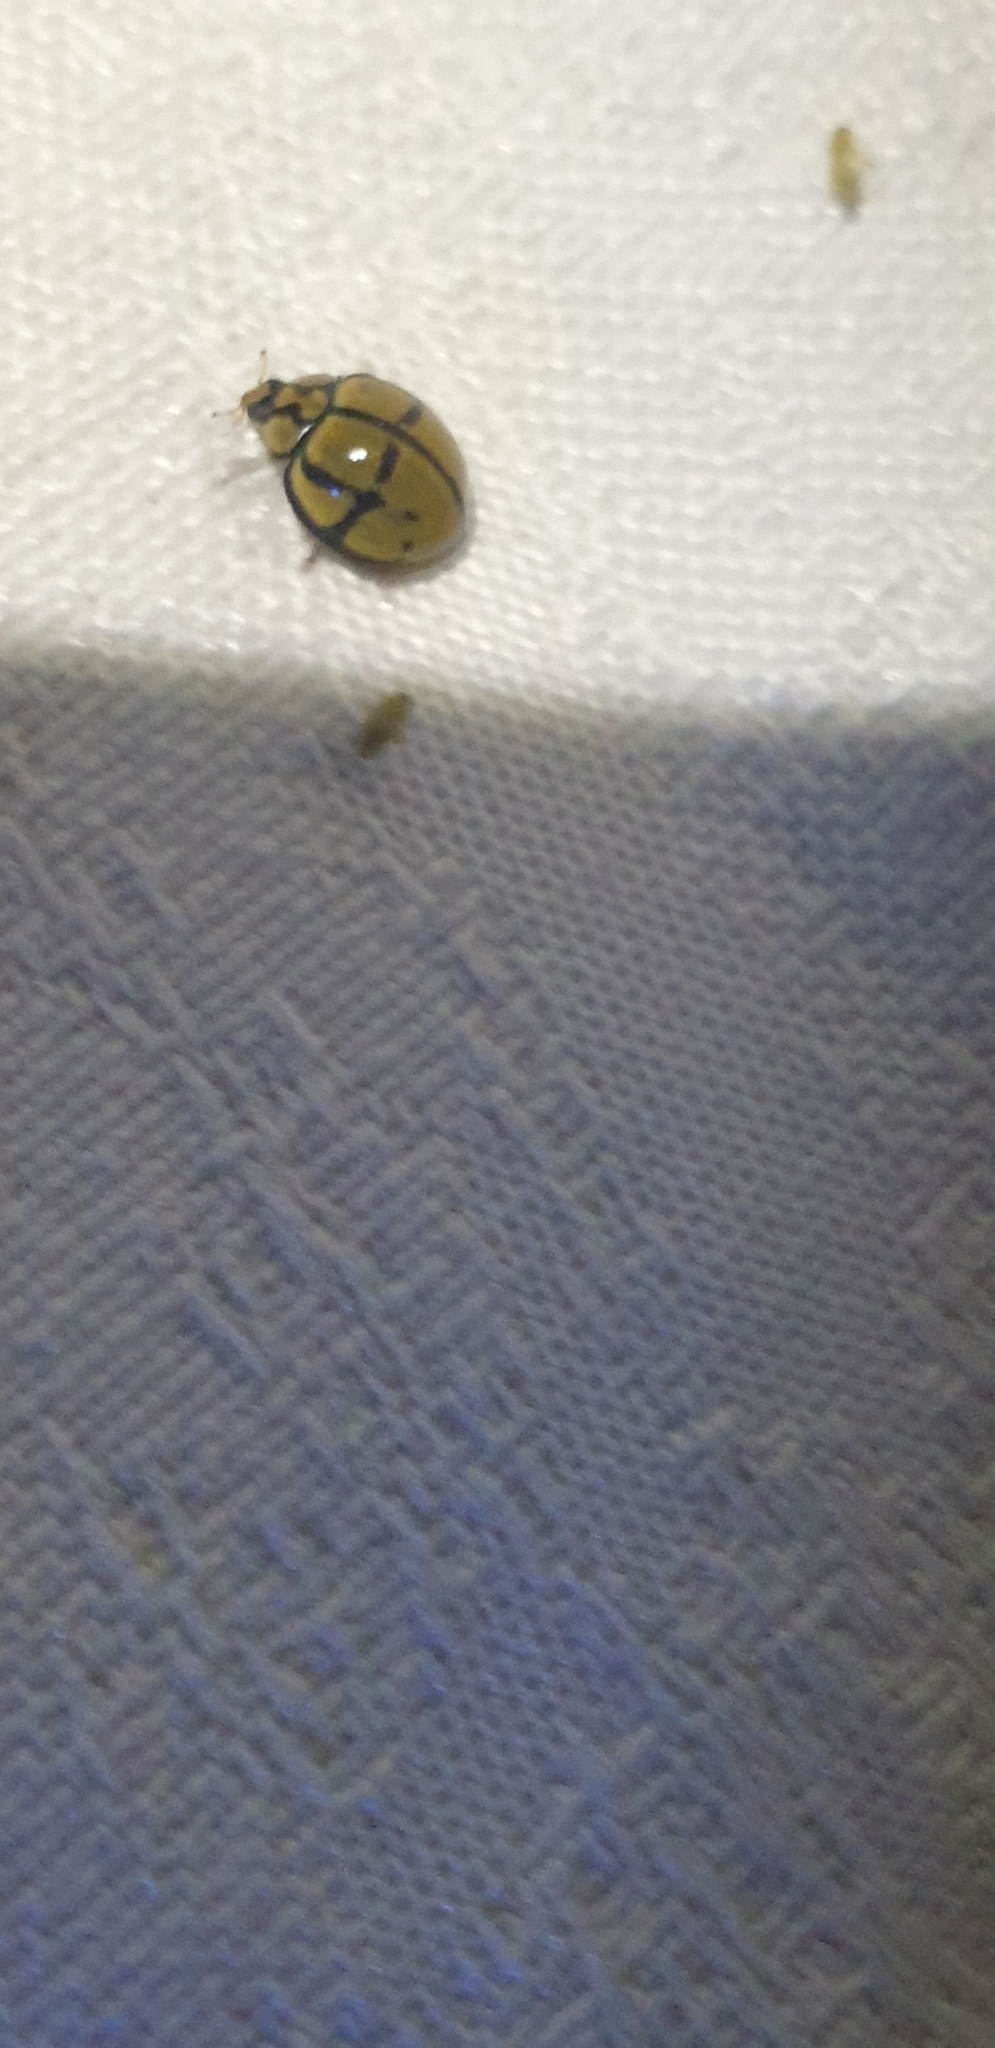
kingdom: Animalia
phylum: Arthropoda
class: Insecta
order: Coleoptera
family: Coccinellidae
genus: Harmonia
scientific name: Harmonia
